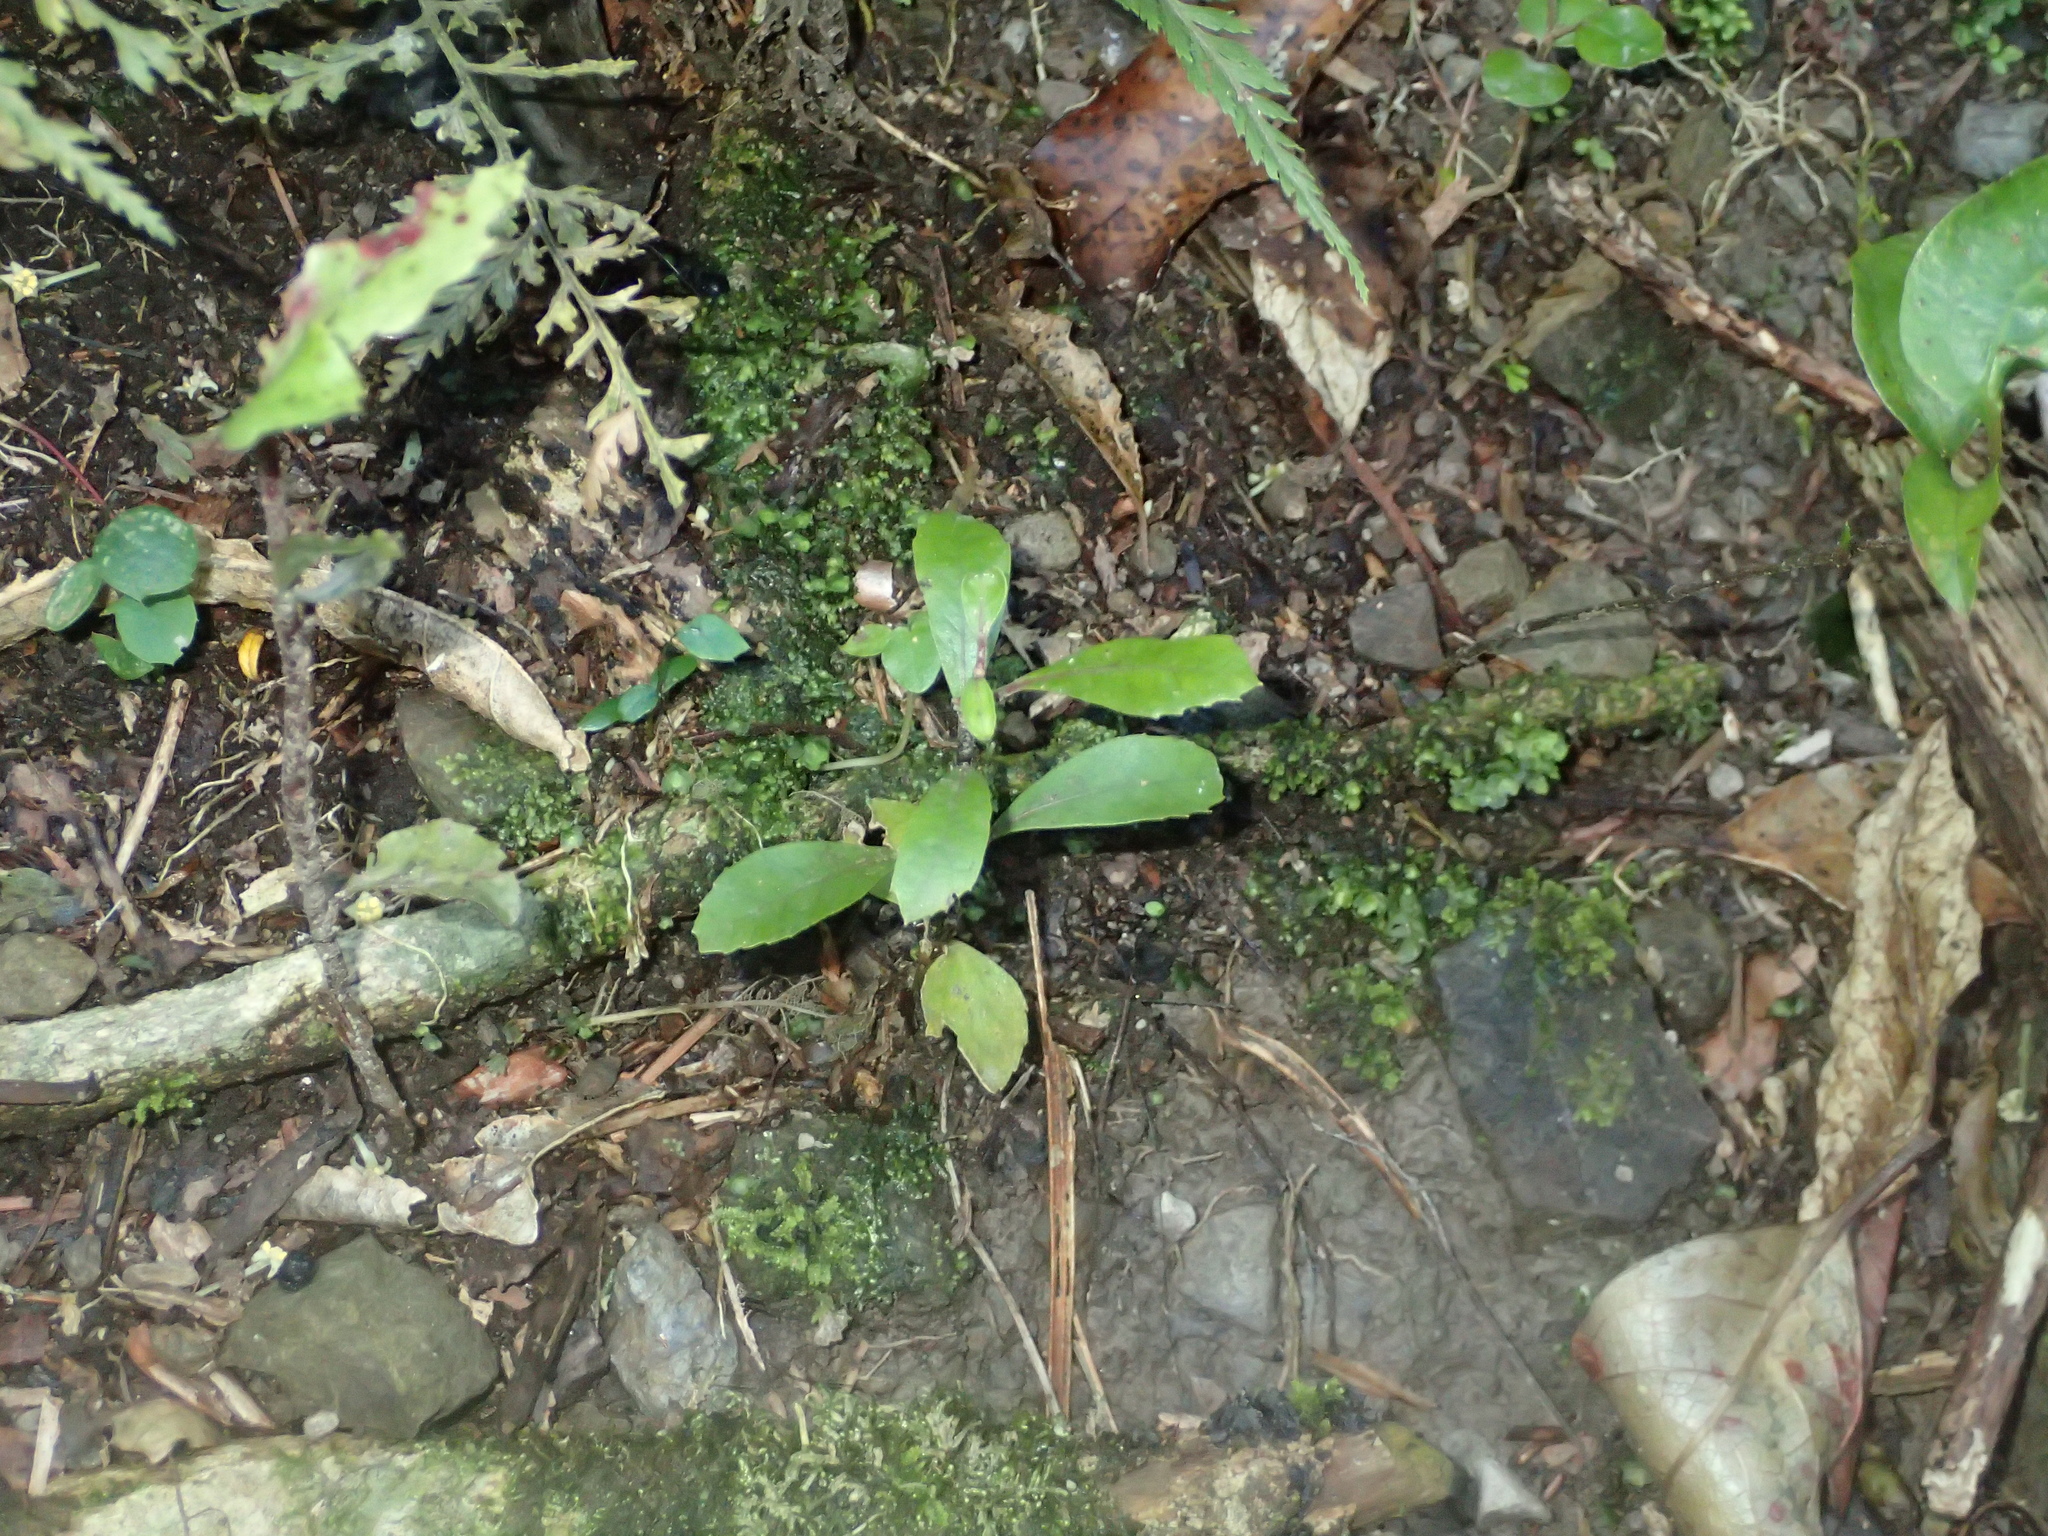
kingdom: Plantae
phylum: Tracheophyta
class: Magnoliopsida
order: Laurales
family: Monimiaceae
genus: Hedycarya
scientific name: Hedycarya arborea
